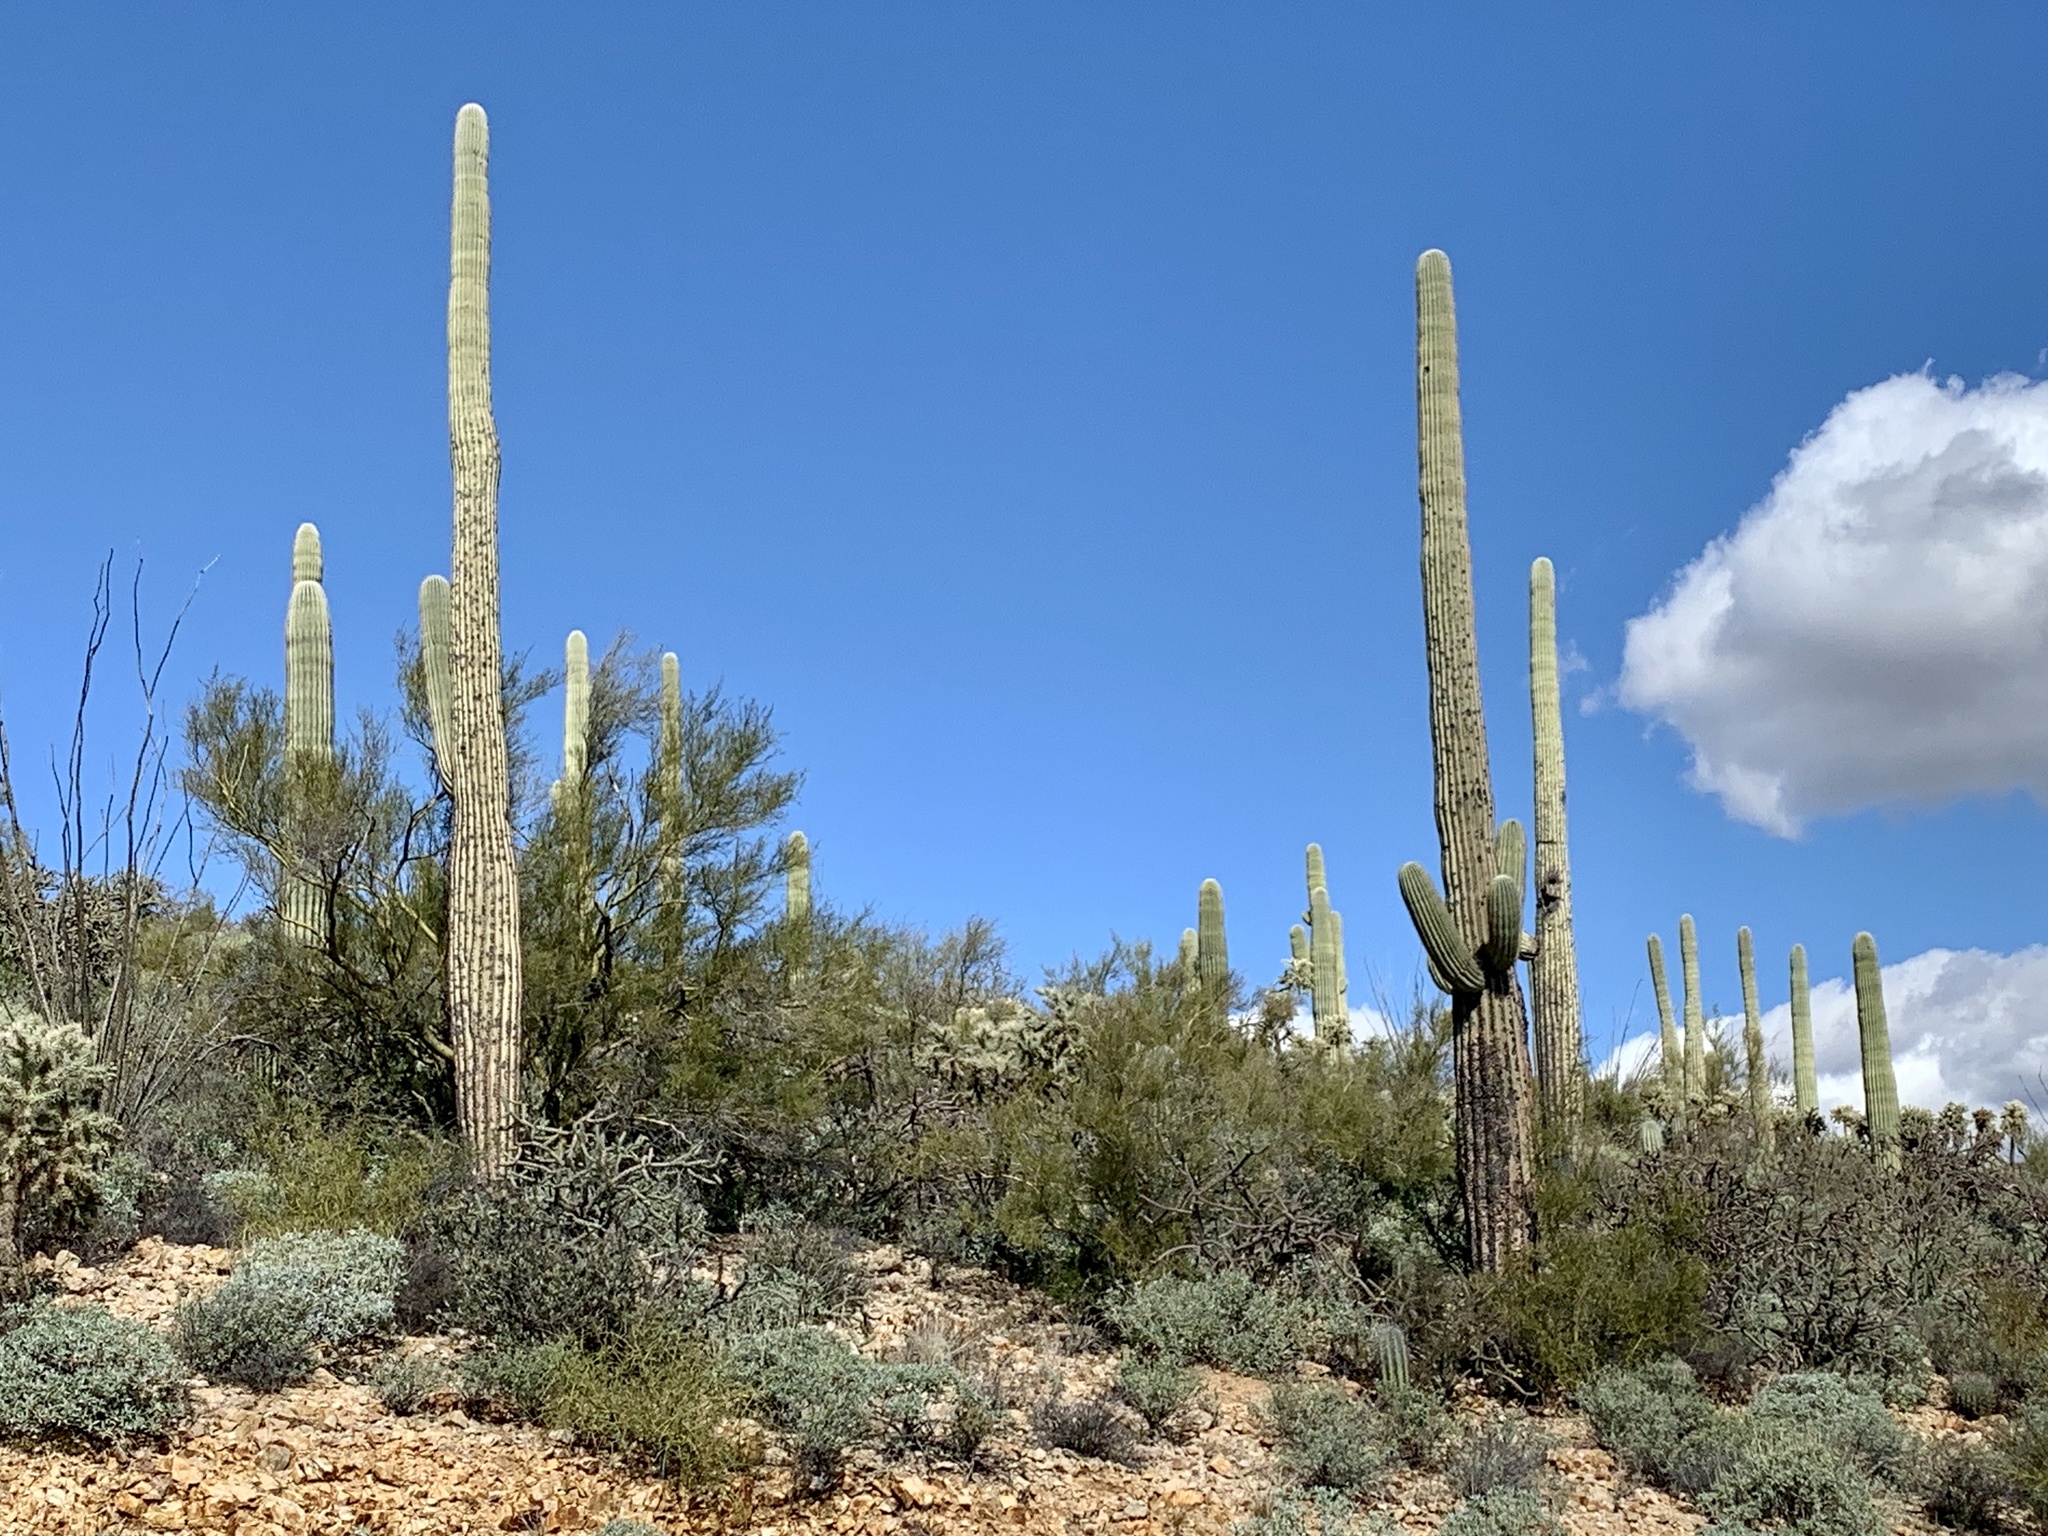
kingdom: Plantae
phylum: Tracheophyta
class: Magnoliopsida
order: Caryophyllales
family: Cactaceae
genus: Carnegiea
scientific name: Carnegiea gigantea
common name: Saguaro
